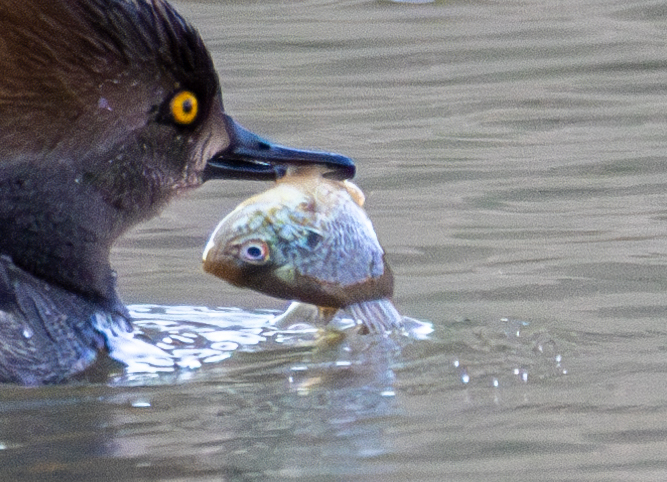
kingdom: Animalia
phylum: Chordata
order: Perciformes
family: Centrarchidae
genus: Lepomis
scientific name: Lepomis gibbosus
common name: Pumpkinseed
